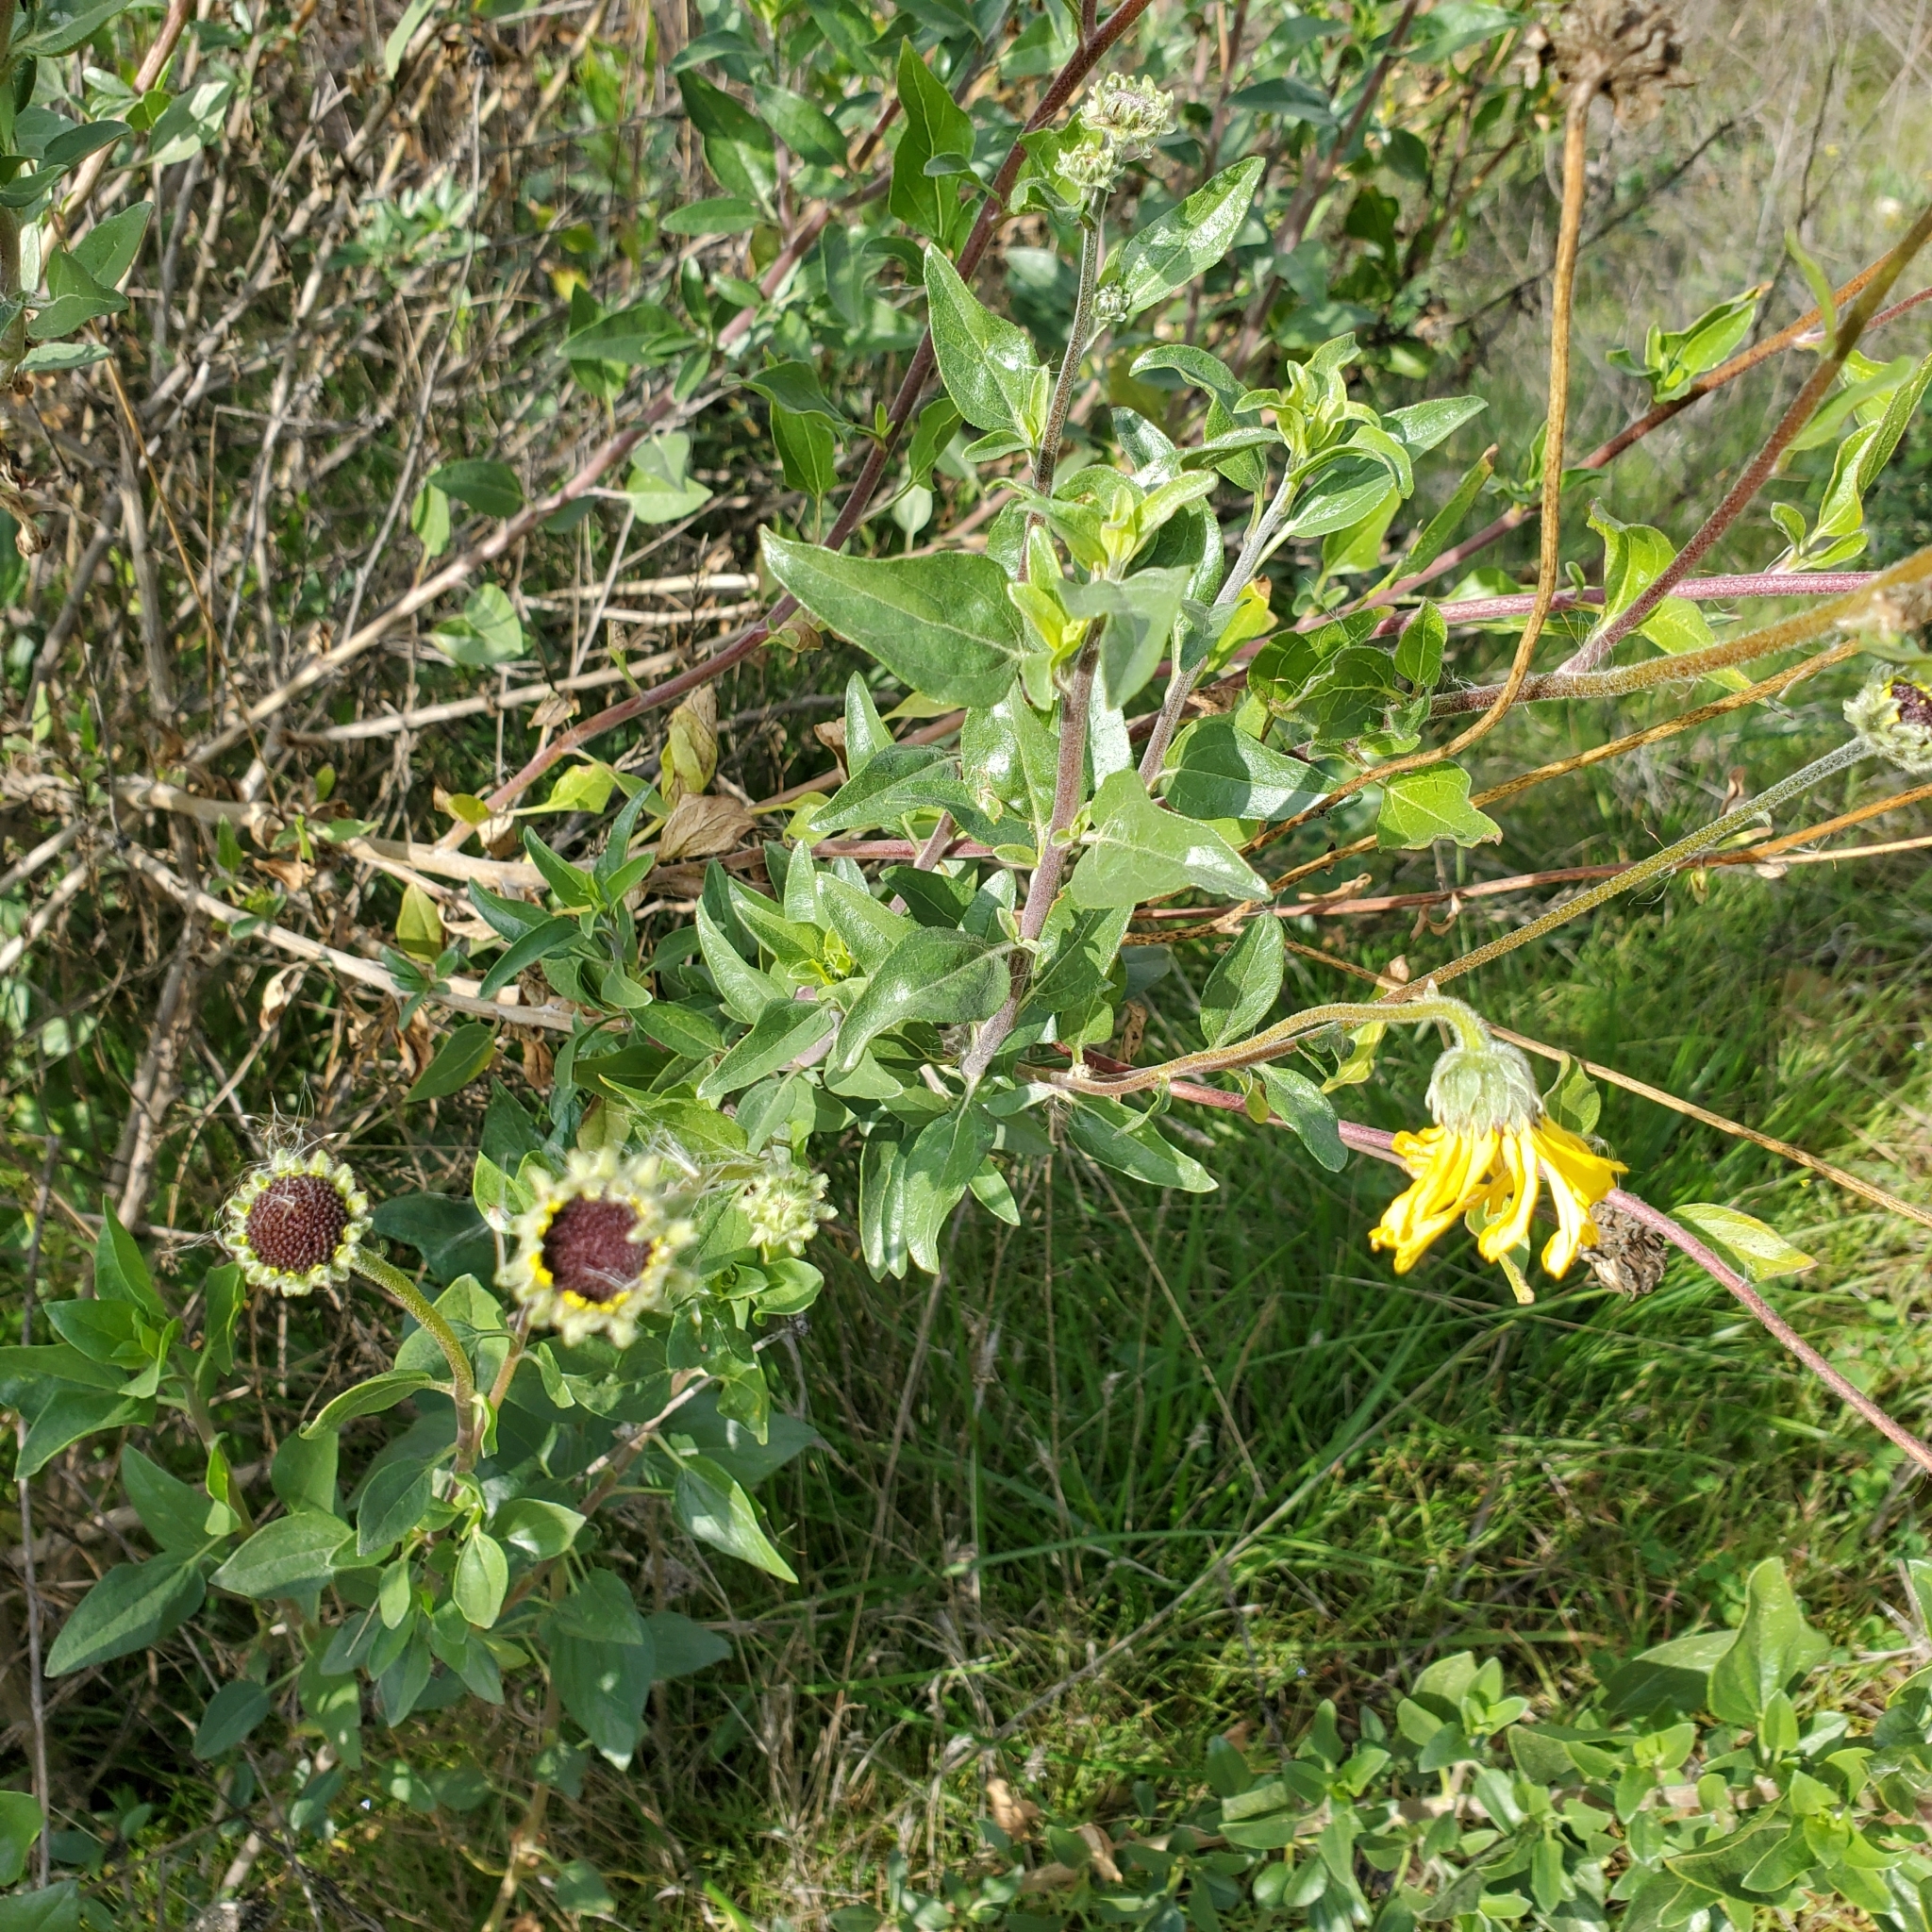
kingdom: Plantae
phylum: Tracheophyta
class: Magnoliopsida
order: Asterales
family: Asteraceae
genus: Encelia
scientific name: Encelia californica
